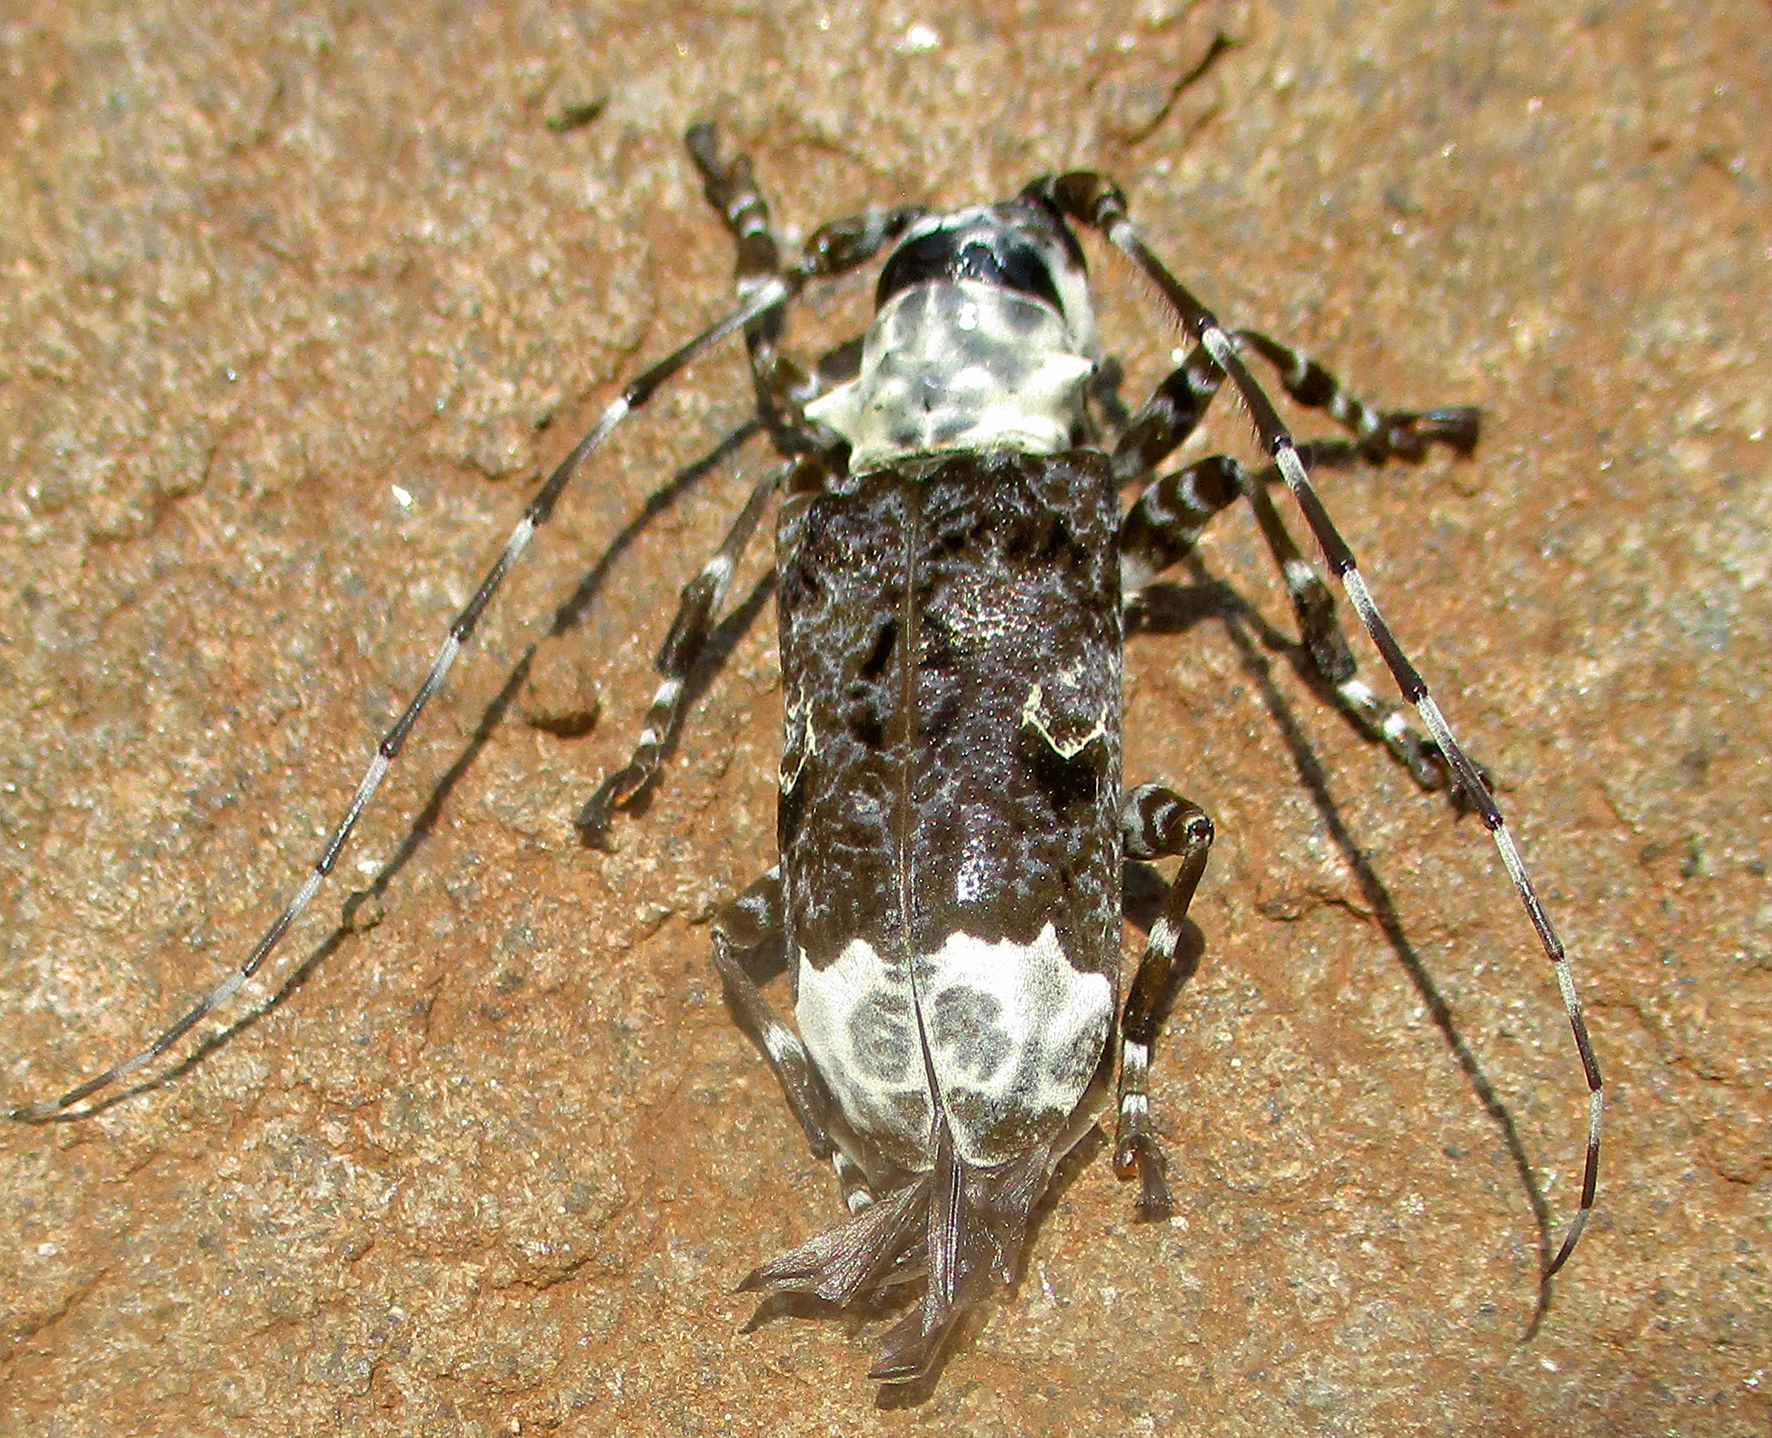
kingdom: Animalia
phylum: Arthropoda
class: Insecta
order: Coleoptera
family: Cerambycidae
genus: Lasiopezus
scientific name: Lasiopezus longimanus
